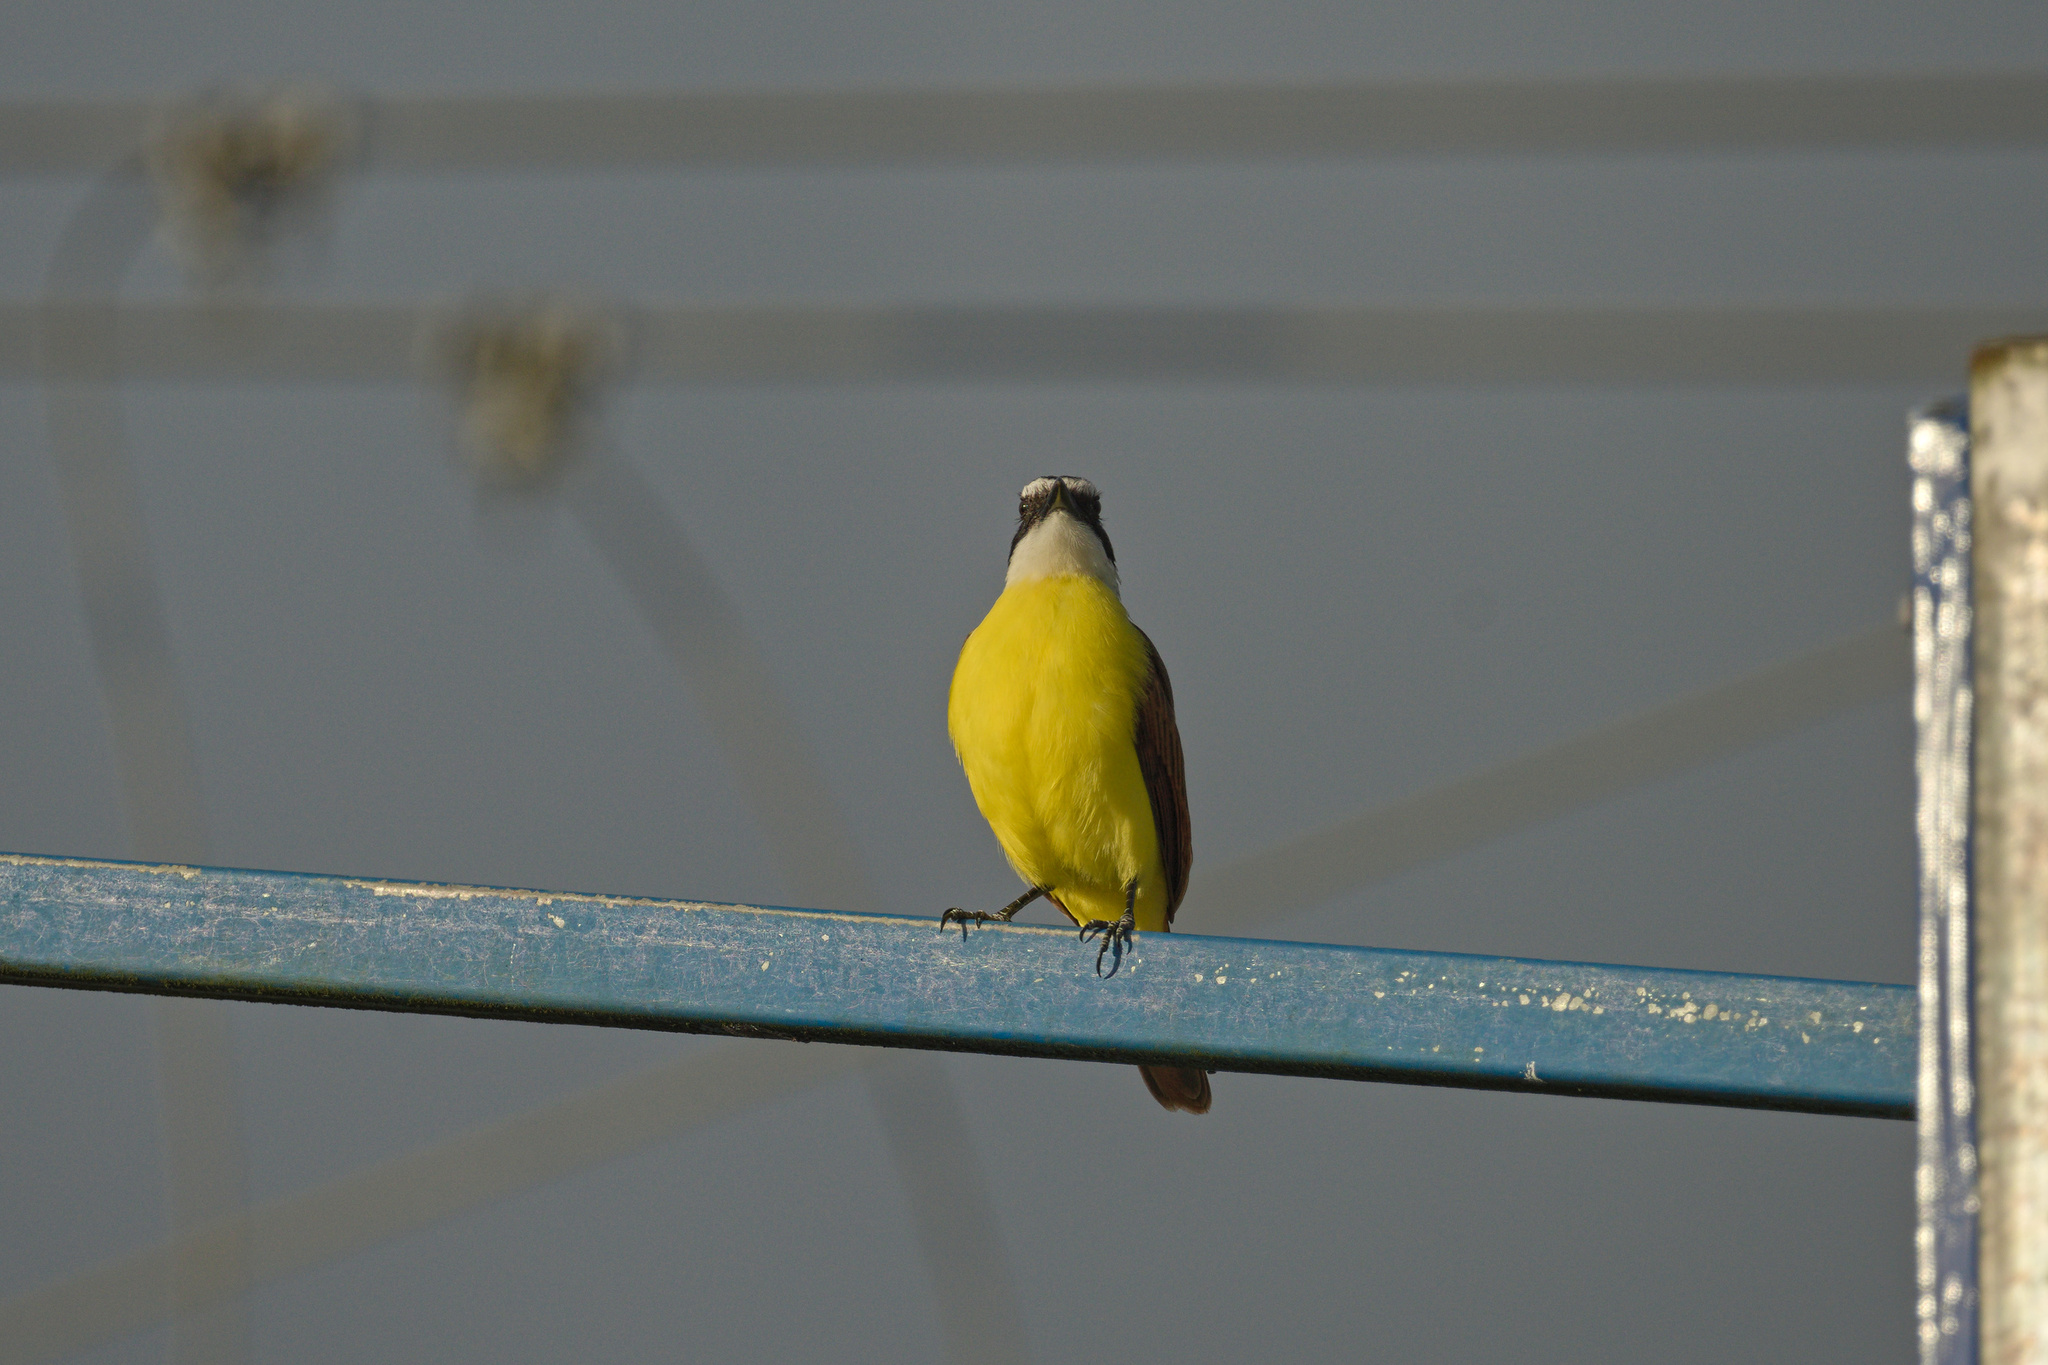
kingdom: Animalia
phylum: Chordata
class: Aves
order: Passeriformes
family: Tyrannidae
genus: Pitangus
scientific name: Pitangus sulphuratus
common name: Great kiskadee
